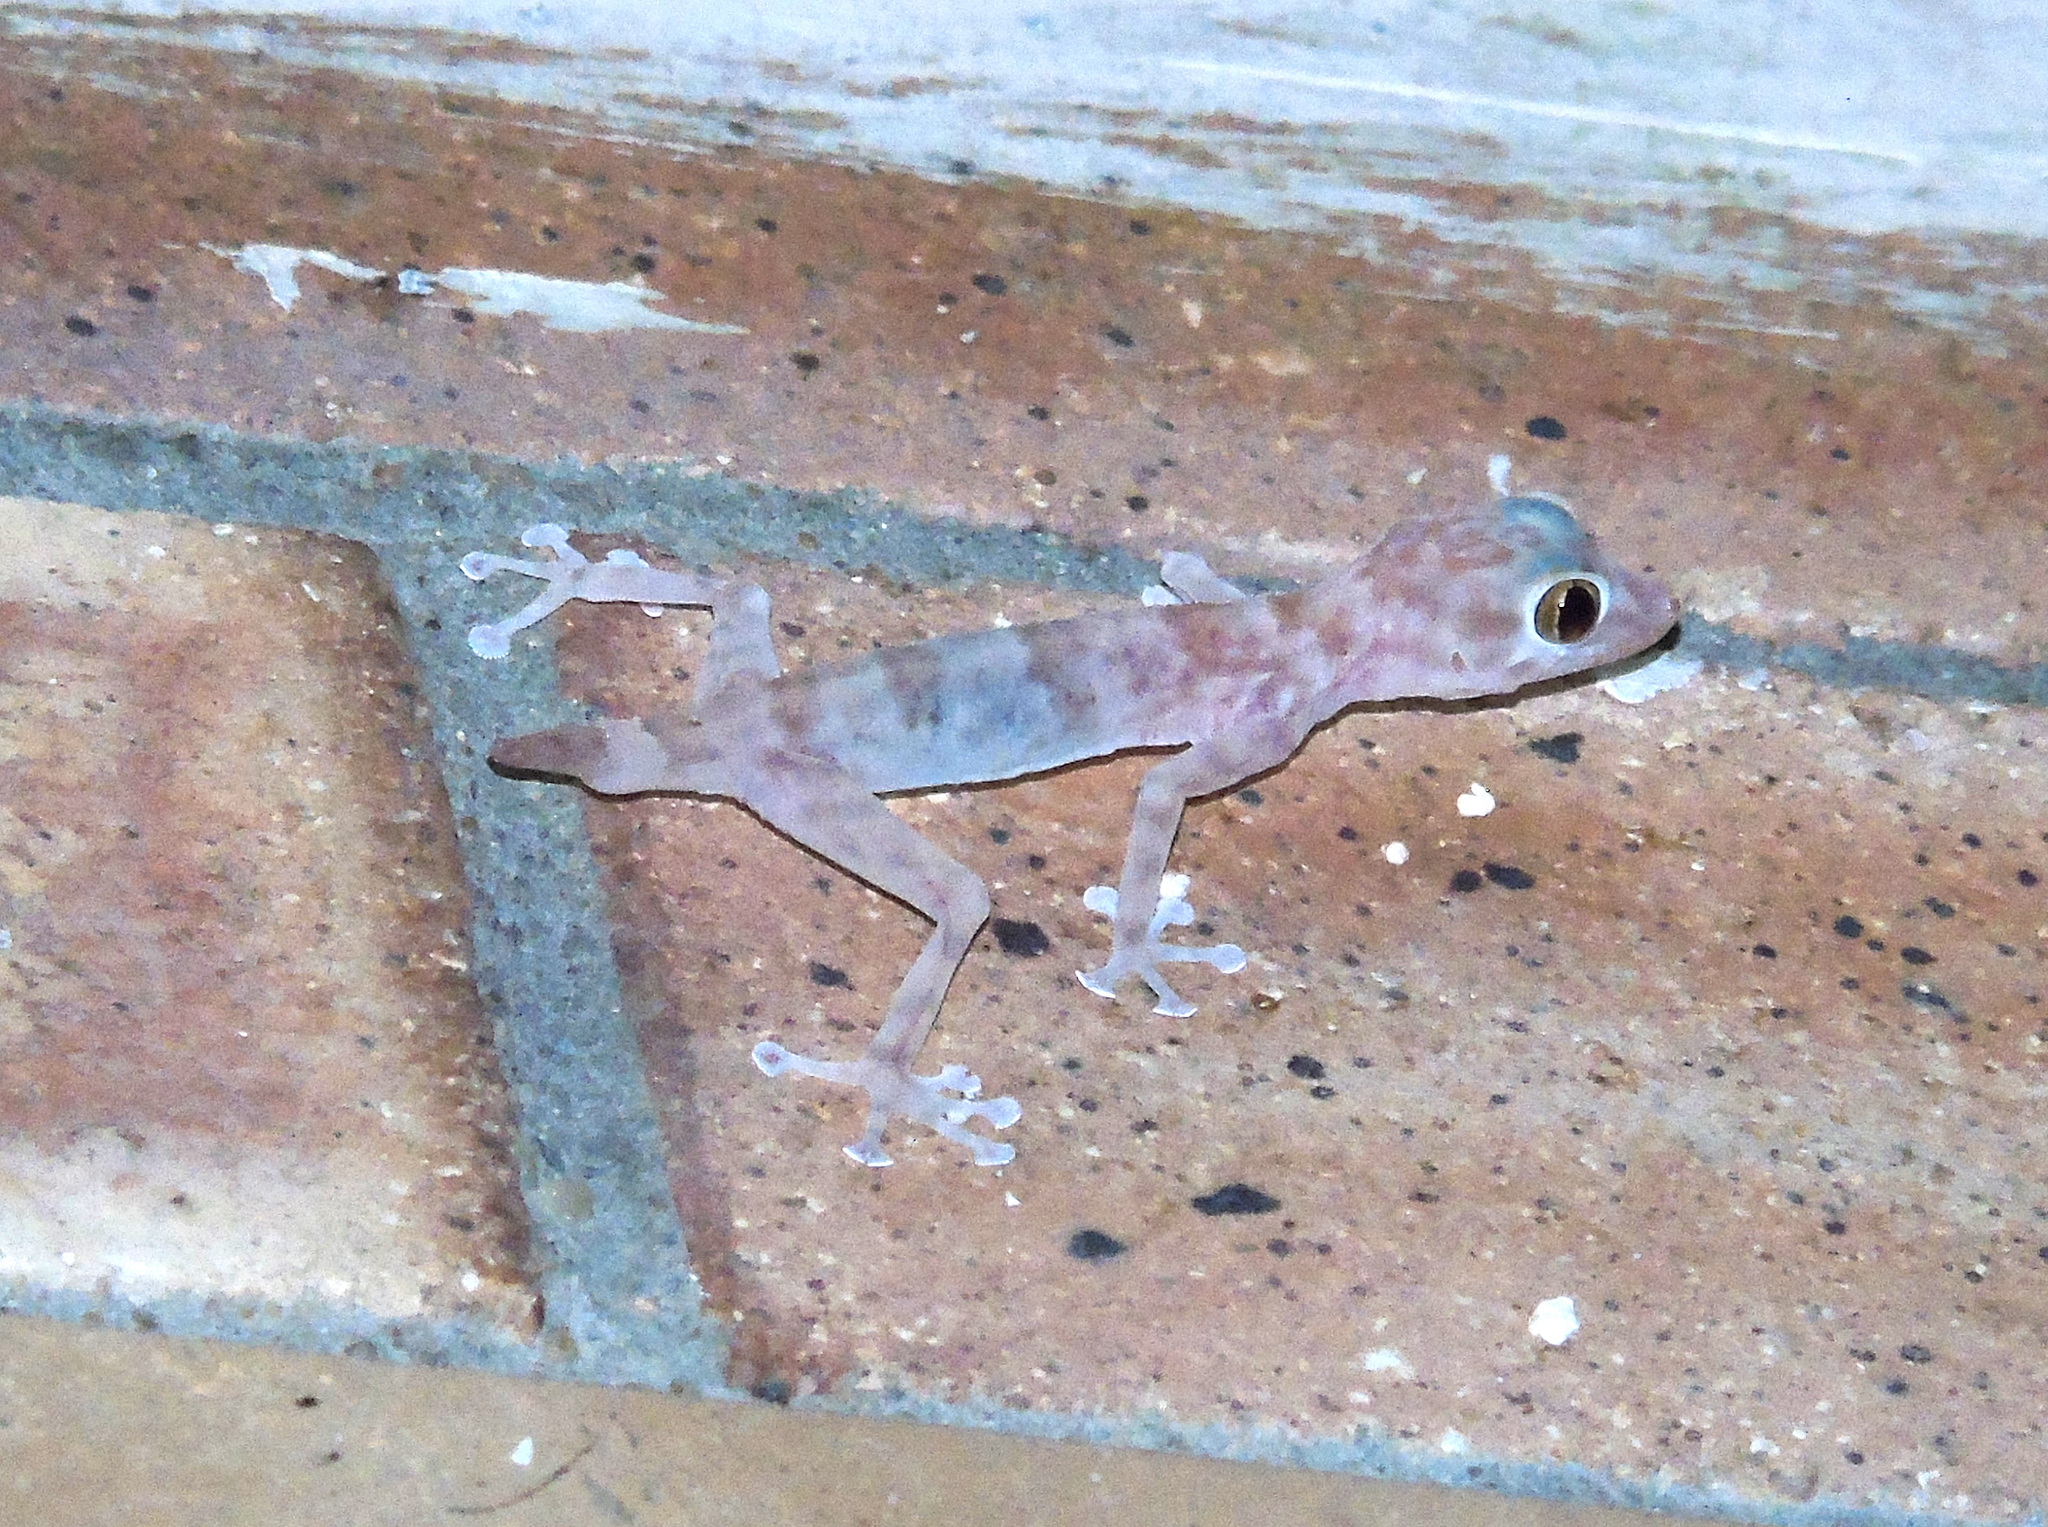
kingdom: Animalia
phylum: Chordata
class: Squamata
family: Phyllodactylidae
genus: Ptyodactylus
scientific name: Ptyodactylus hasselquistii
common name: Hasselquist’s fan-footed gecko
